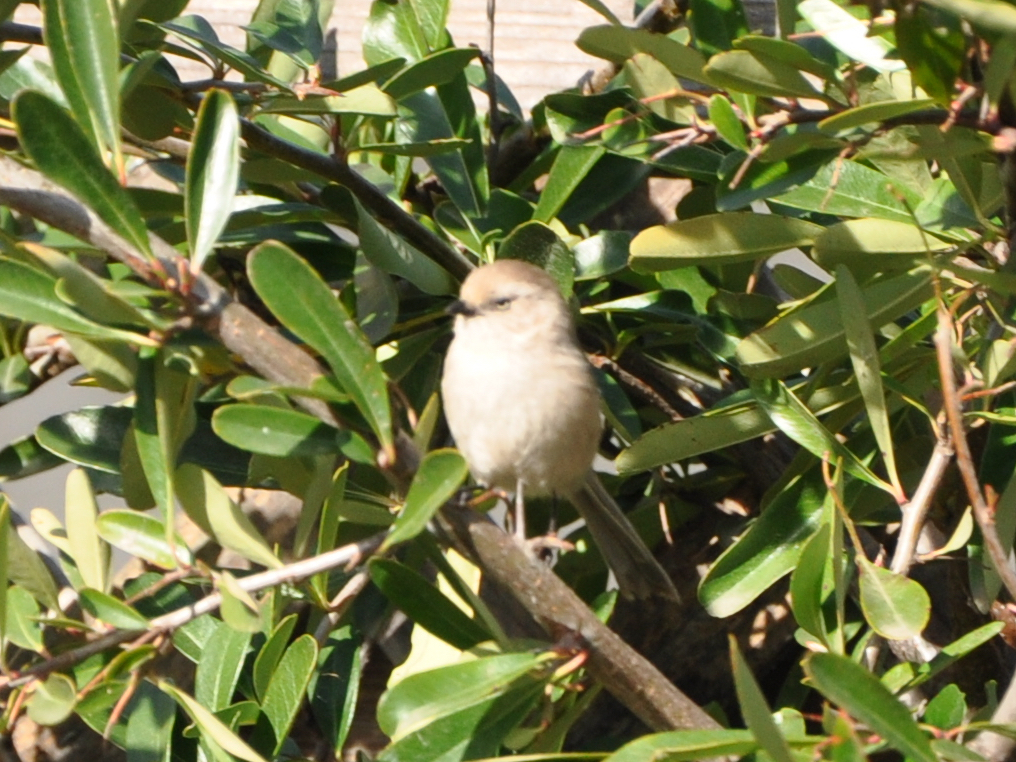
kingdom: Animalia
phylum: Chordata
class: Aves
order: Passeriformes
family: Aegithalidae
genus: Psaltriparus
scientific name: Psaltriparus minimus
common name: American bushtit
